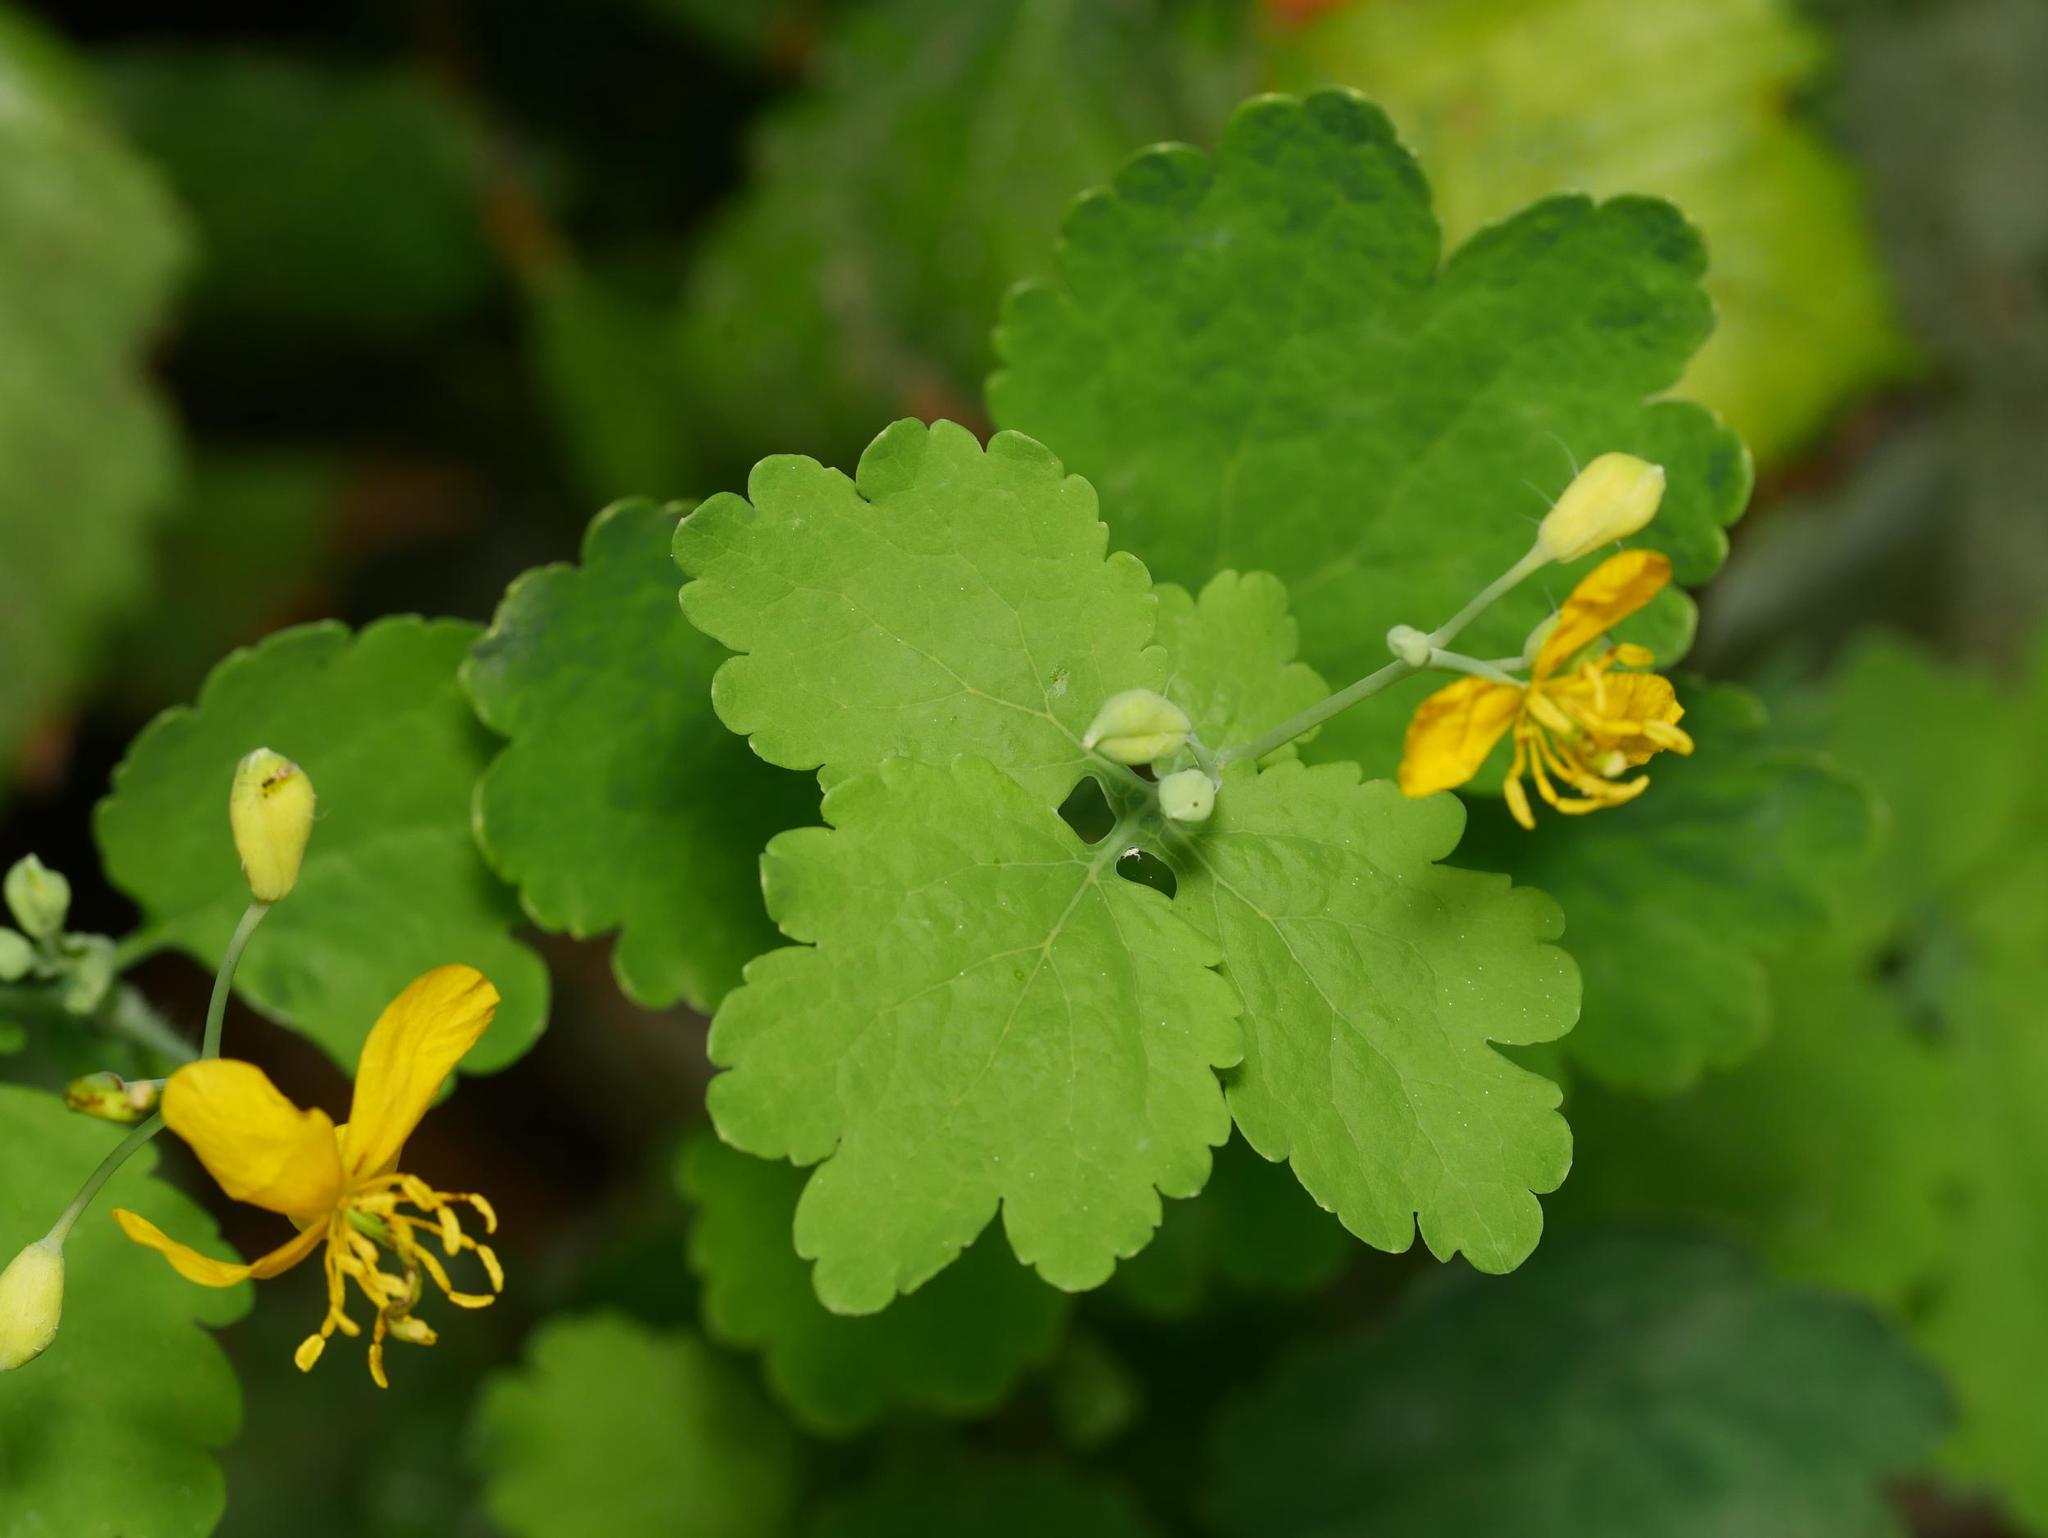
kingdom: Plantae
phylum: Tracheophyta
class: Magnoliopsida
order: Ranunculales
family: Papaveraceae
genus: Chelidonium
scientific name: Chelidonium majus
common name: Greater celandine
